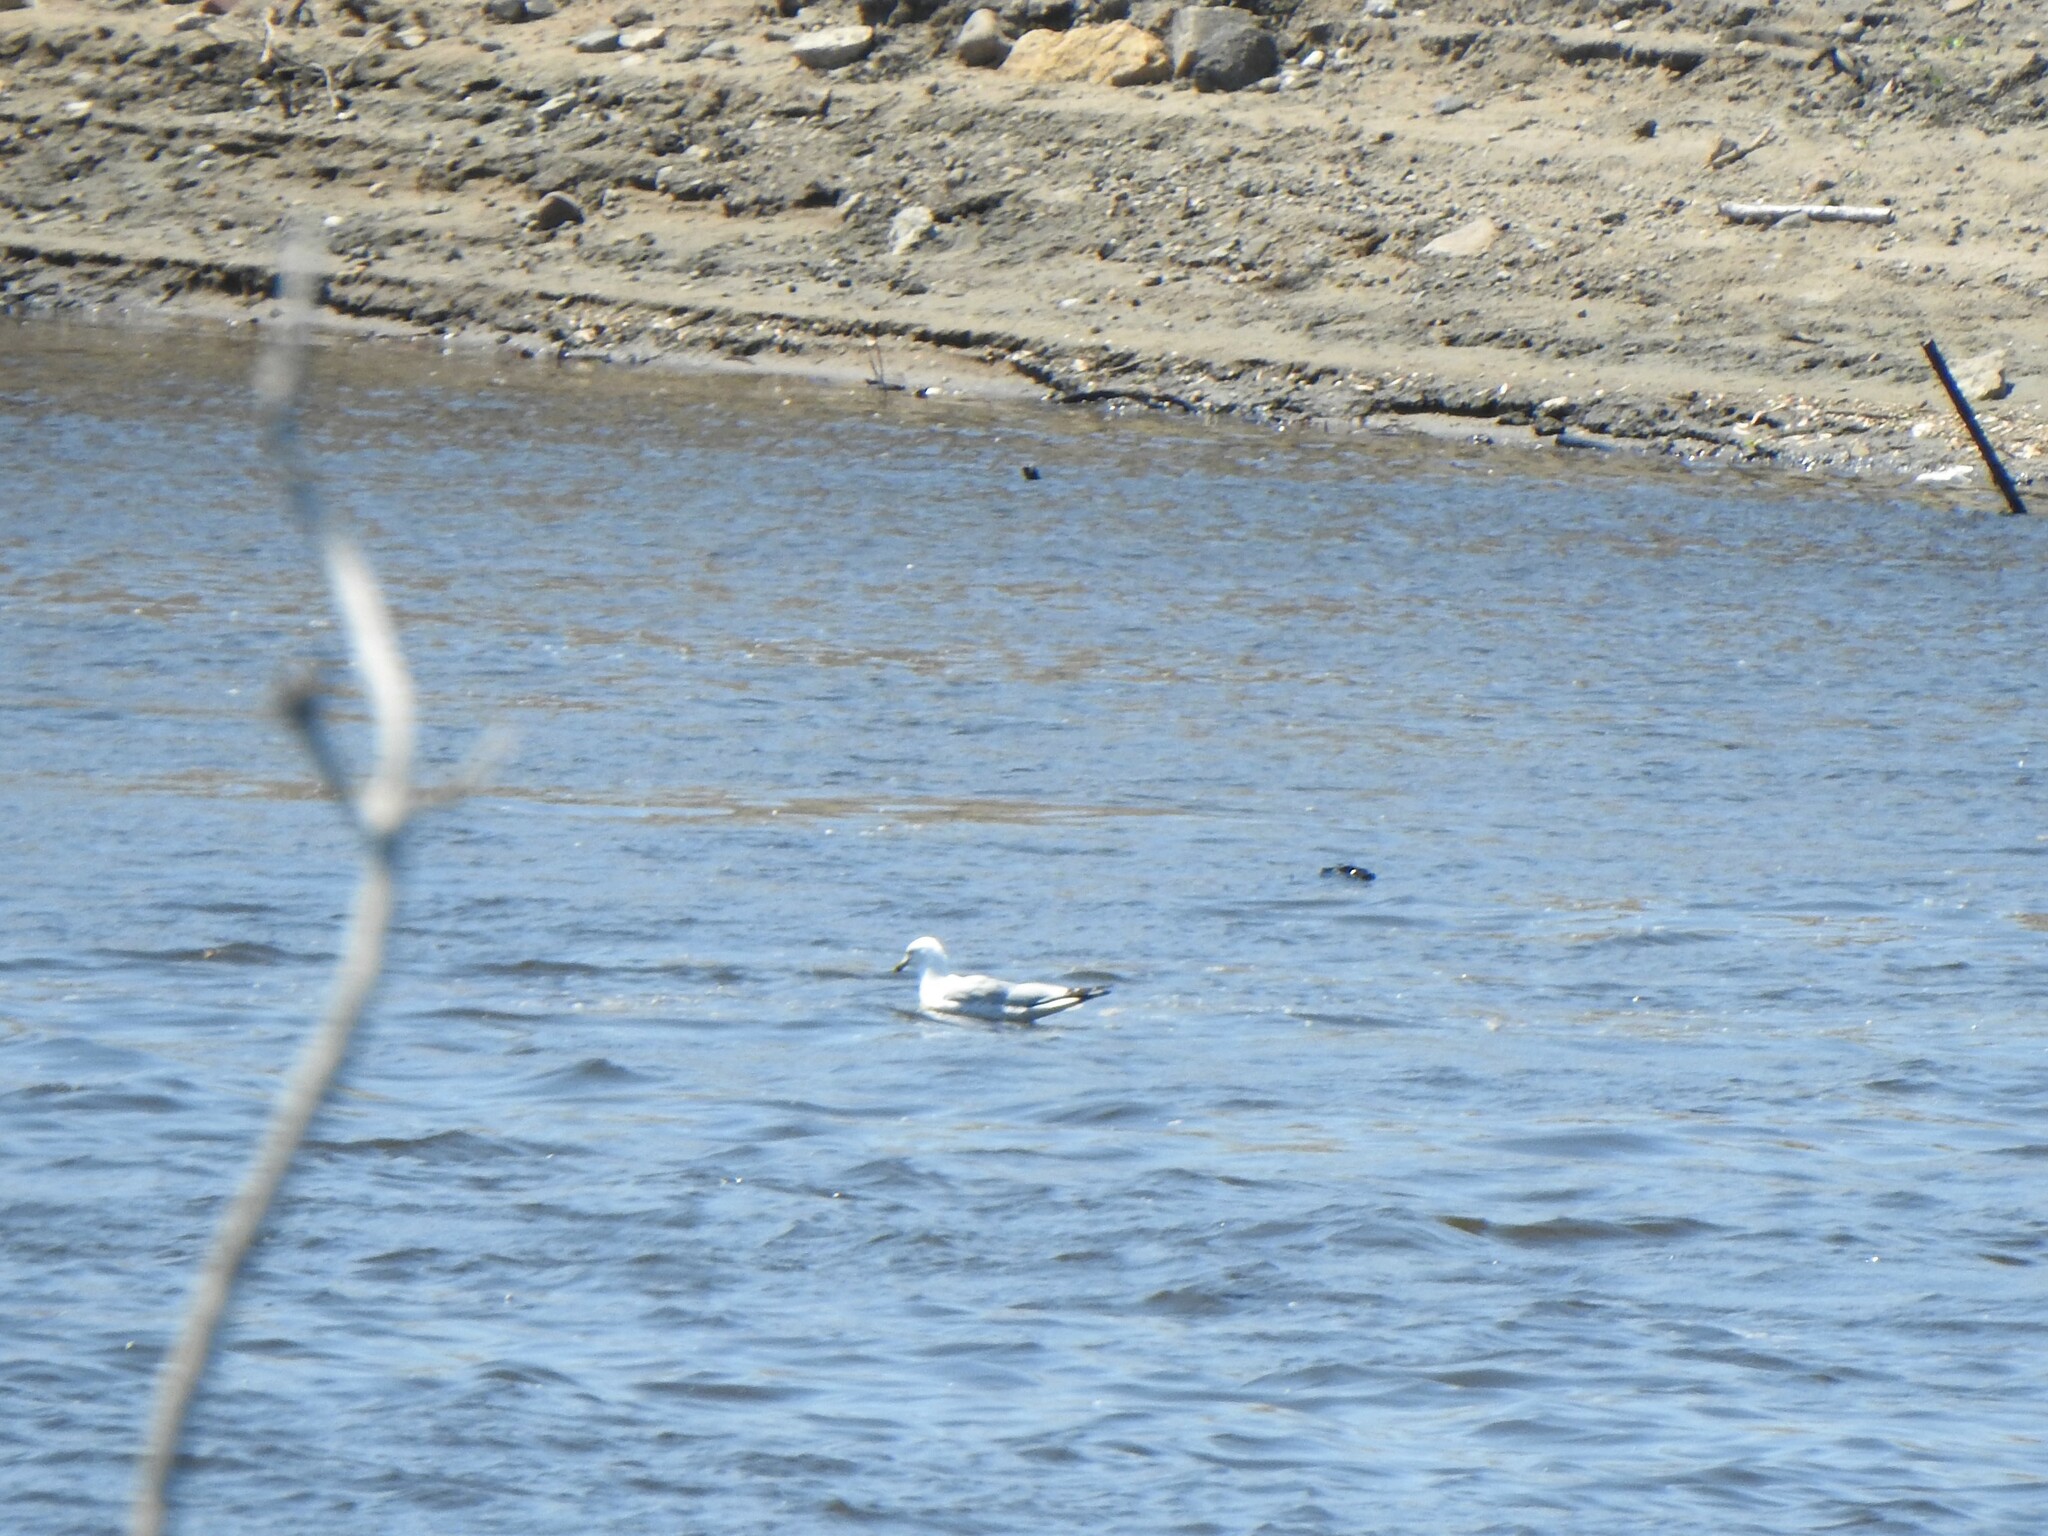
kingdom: Animalia
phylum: Chordata
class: Aves
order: Charadriiformes
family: Laridae
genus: Larus
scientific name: Larus delawarensis
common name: Ring-billed gull
